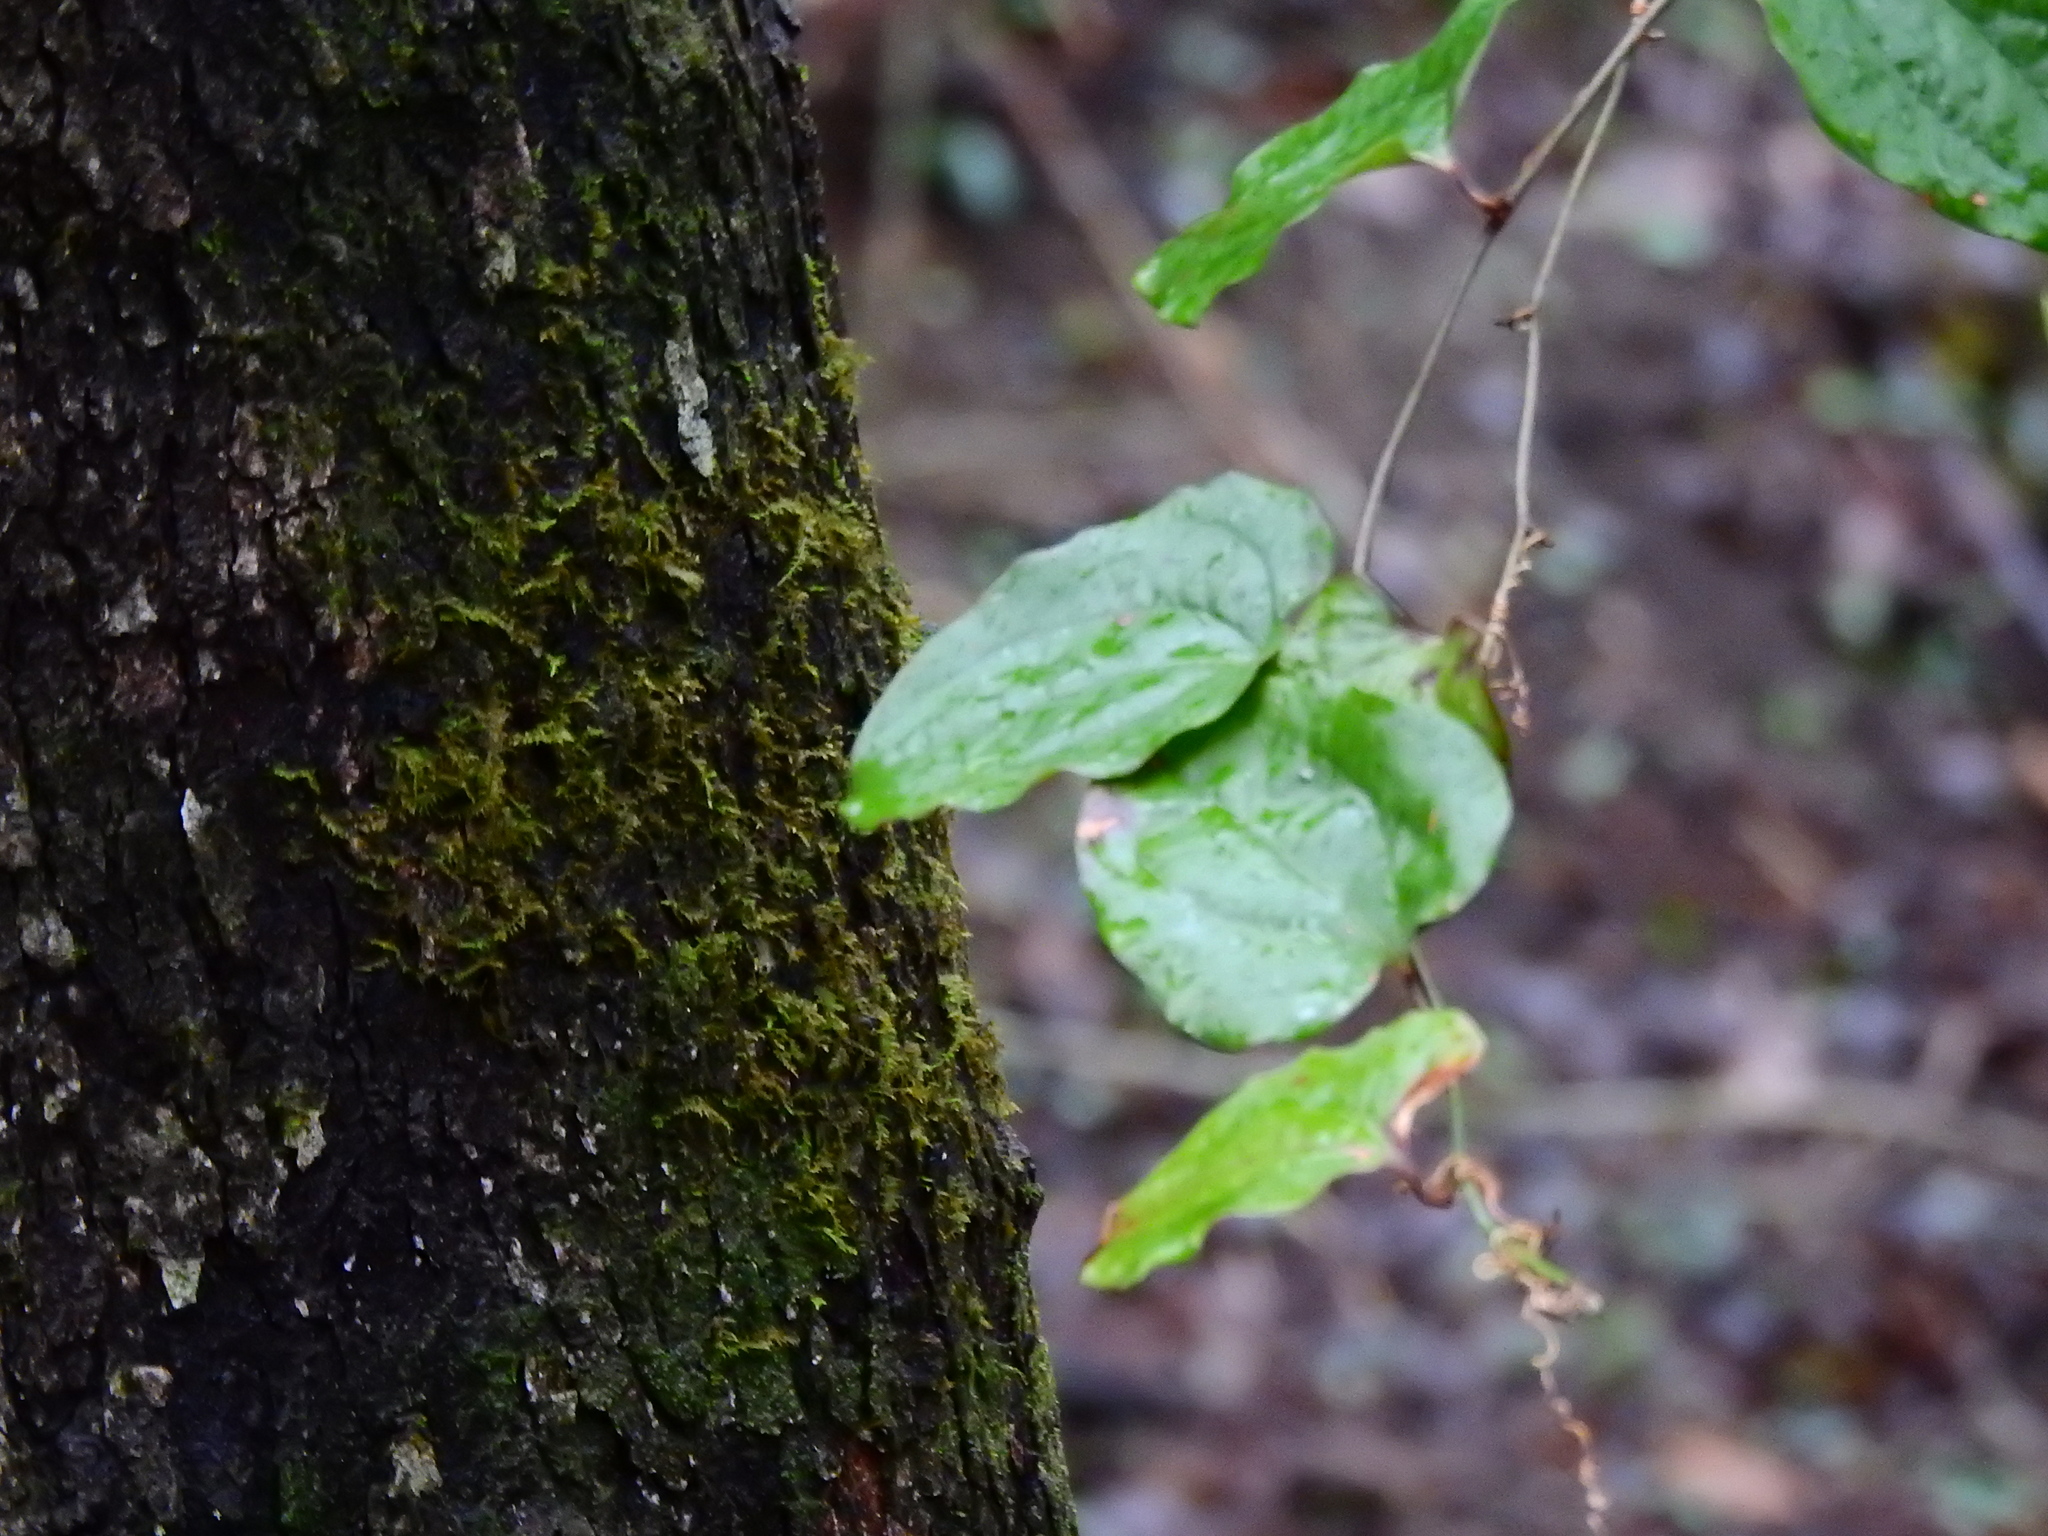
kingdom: Plantae
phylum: Tracheophyta
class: Liliopsida
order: Liliales
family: Smilacaceae
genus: Smilax
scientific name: Smilax tamnoides
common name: Hellfetter
